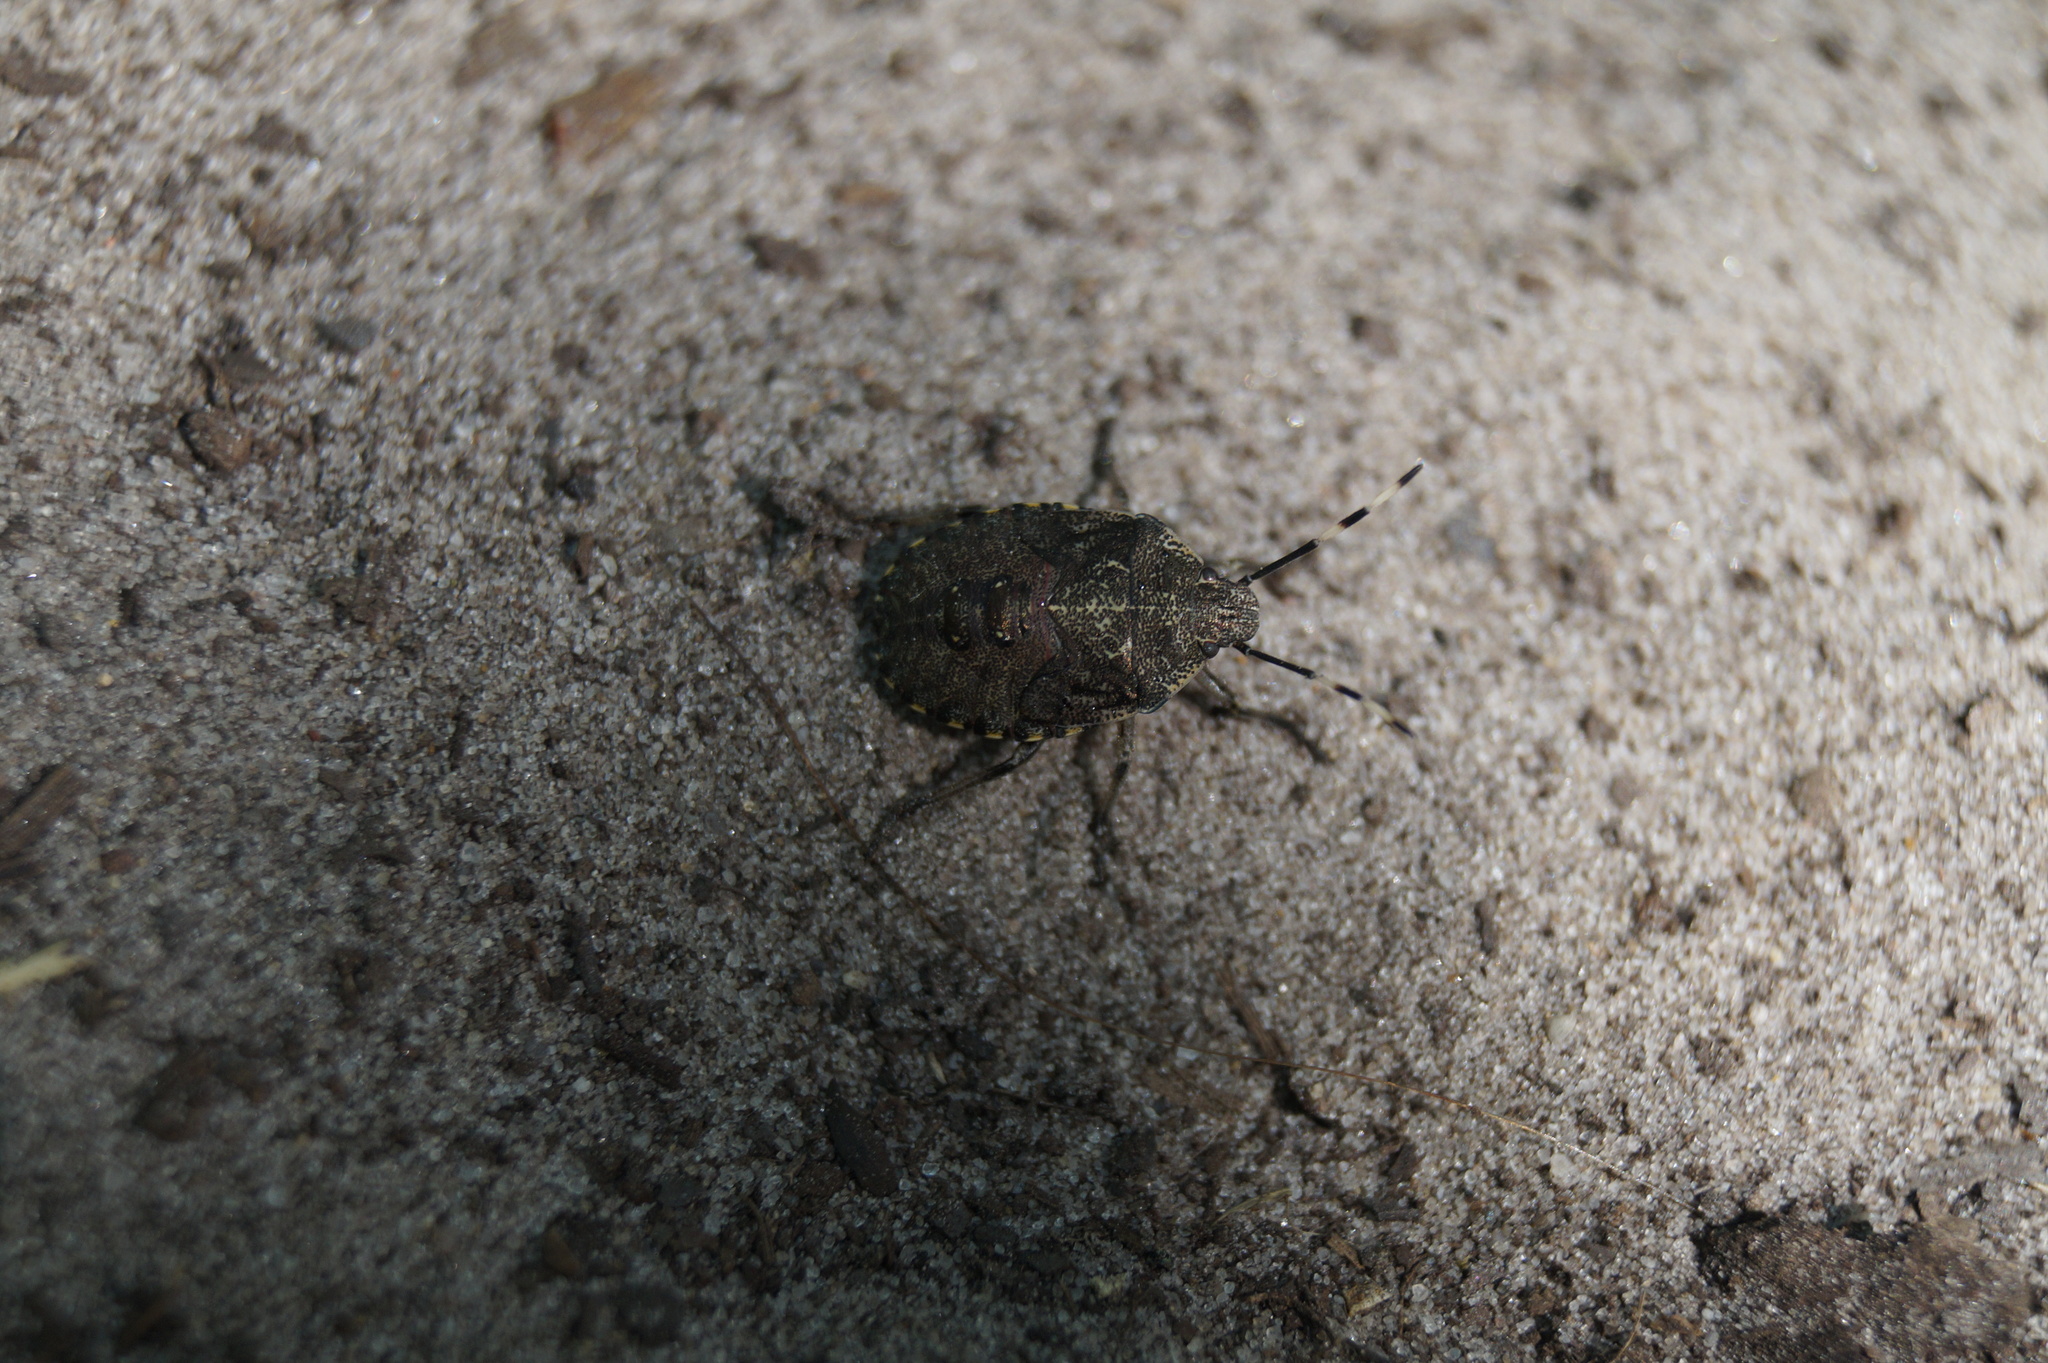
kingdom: Animalia
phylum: Arthropoda
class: Insecta
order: Hemiptera
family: Pentatomidae
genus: Rhaphigaster
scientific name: Rhaphigaster nebulosa
